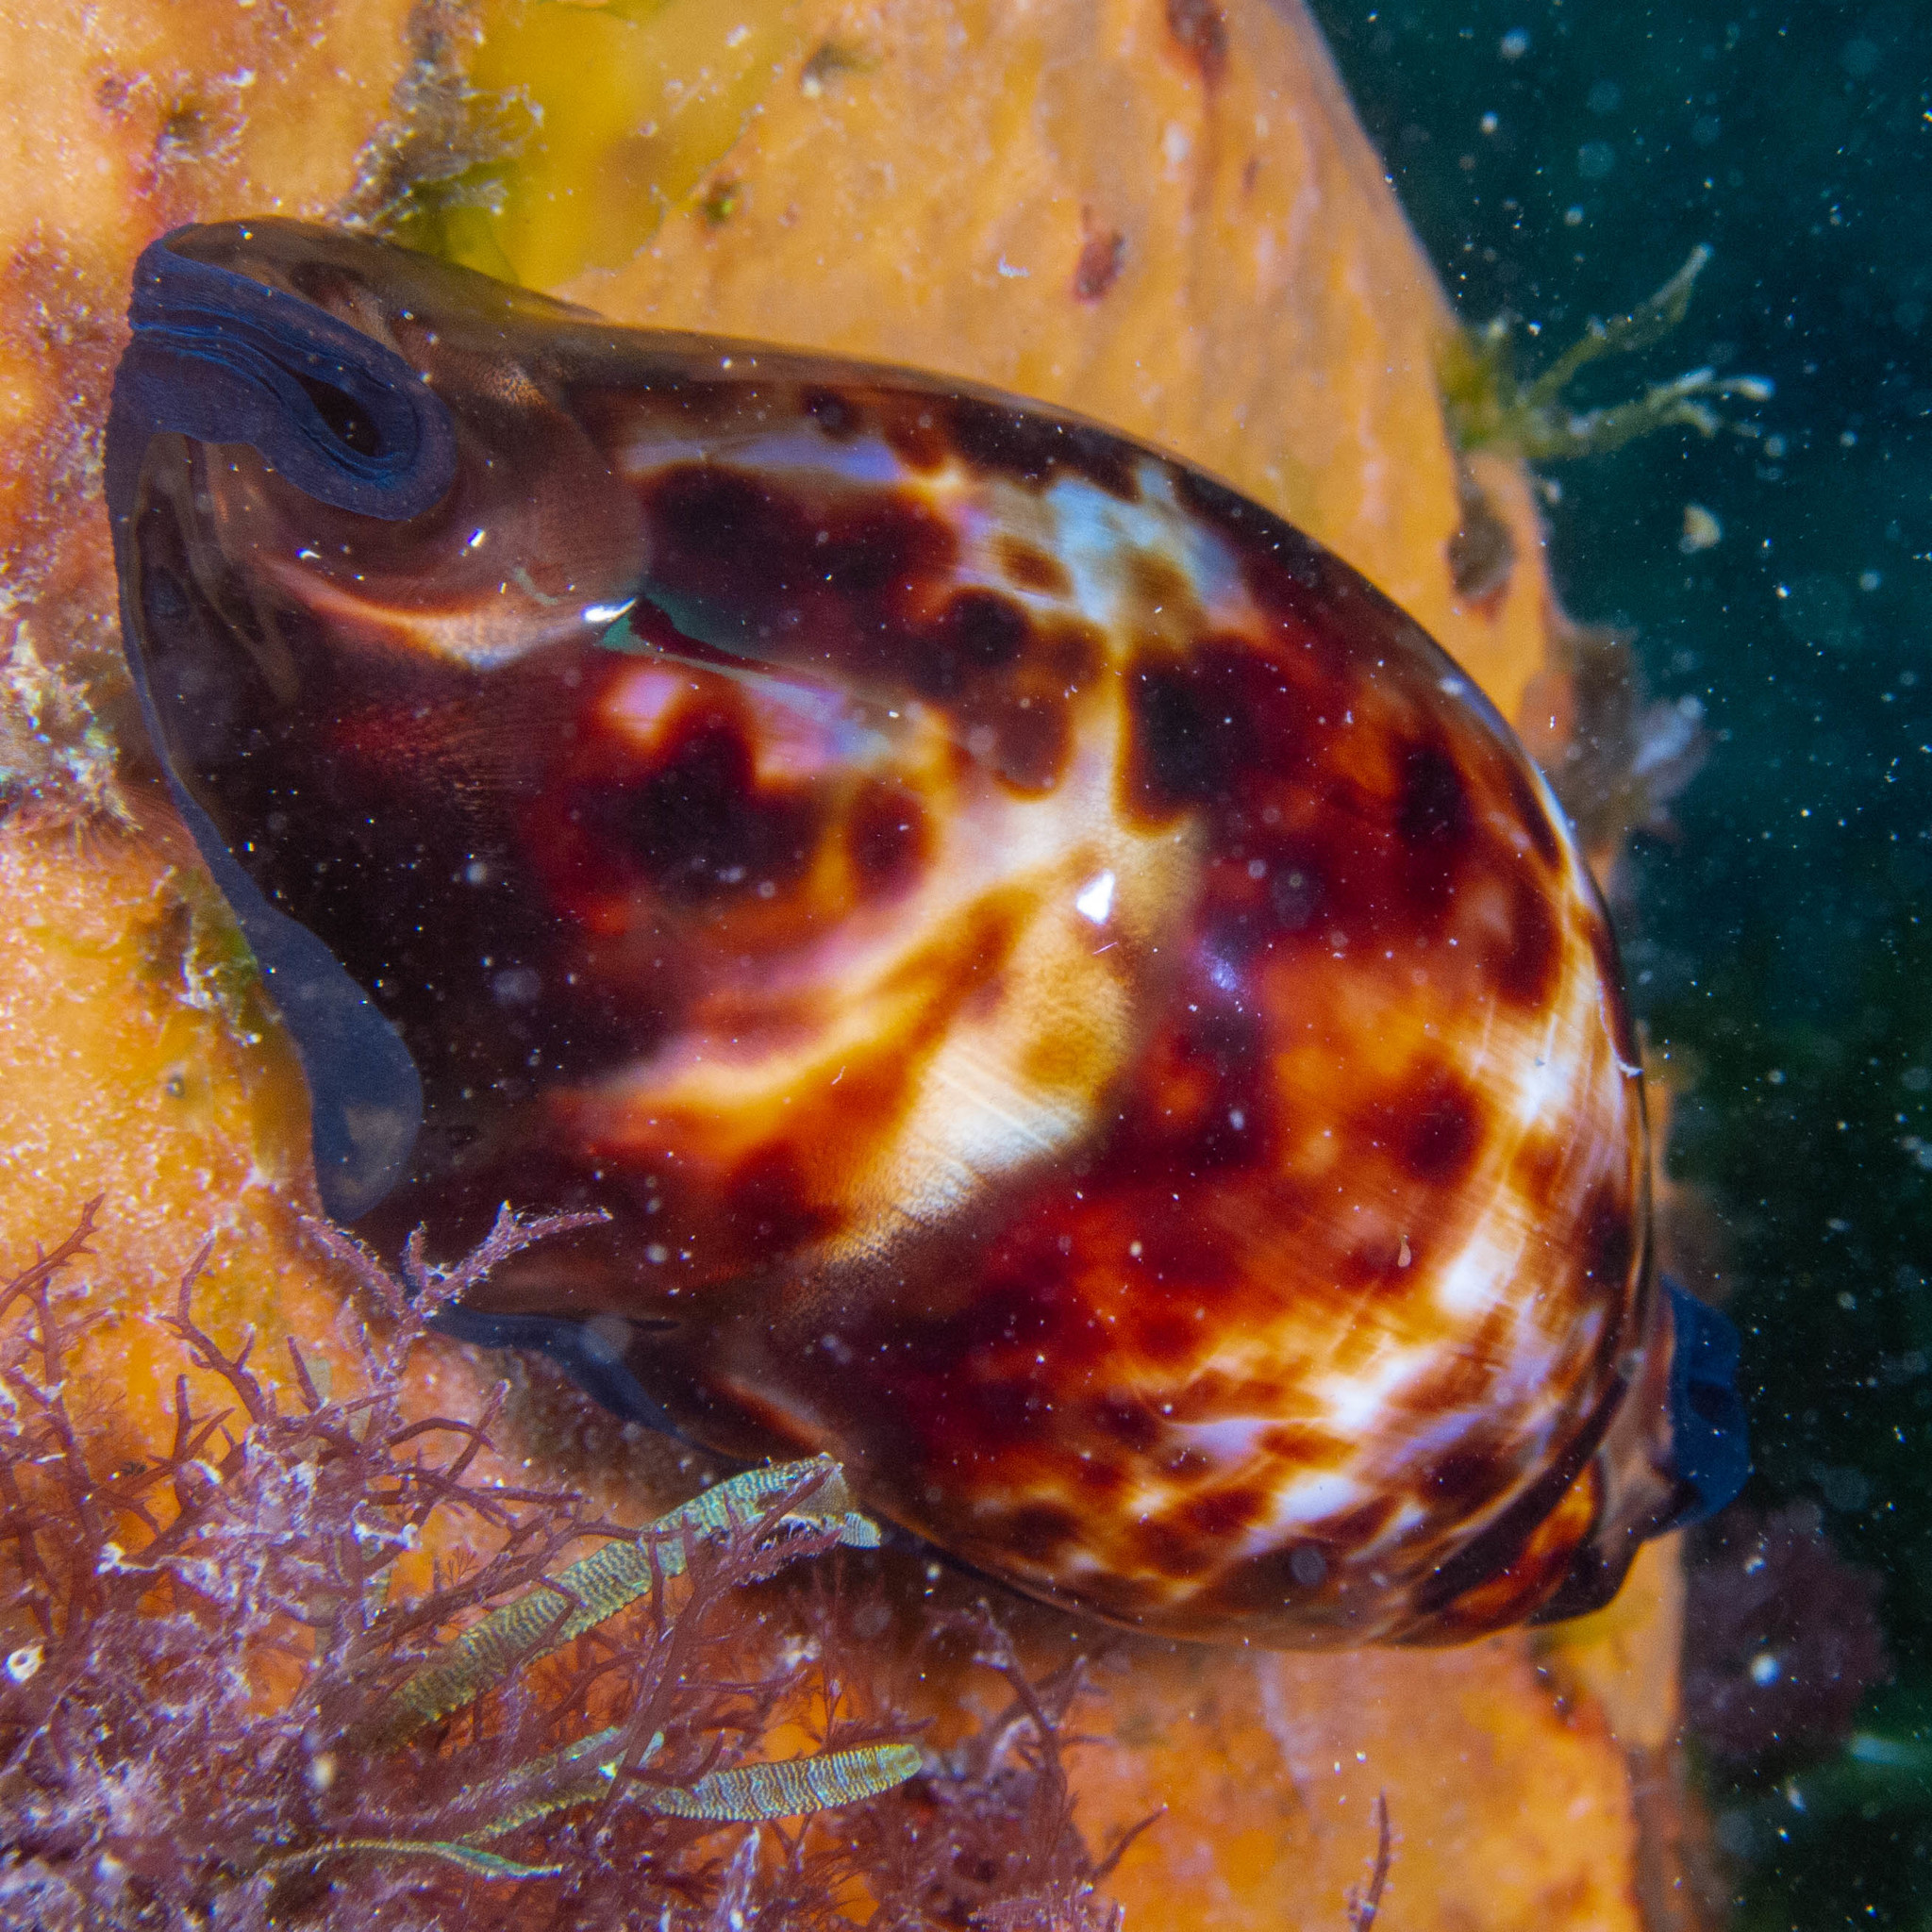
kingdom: Animalia
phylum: Mollusca
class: Gastropoda
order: Littorinimorpha
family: Cypraeidae
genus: Zoila
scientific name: Zoila friendii
